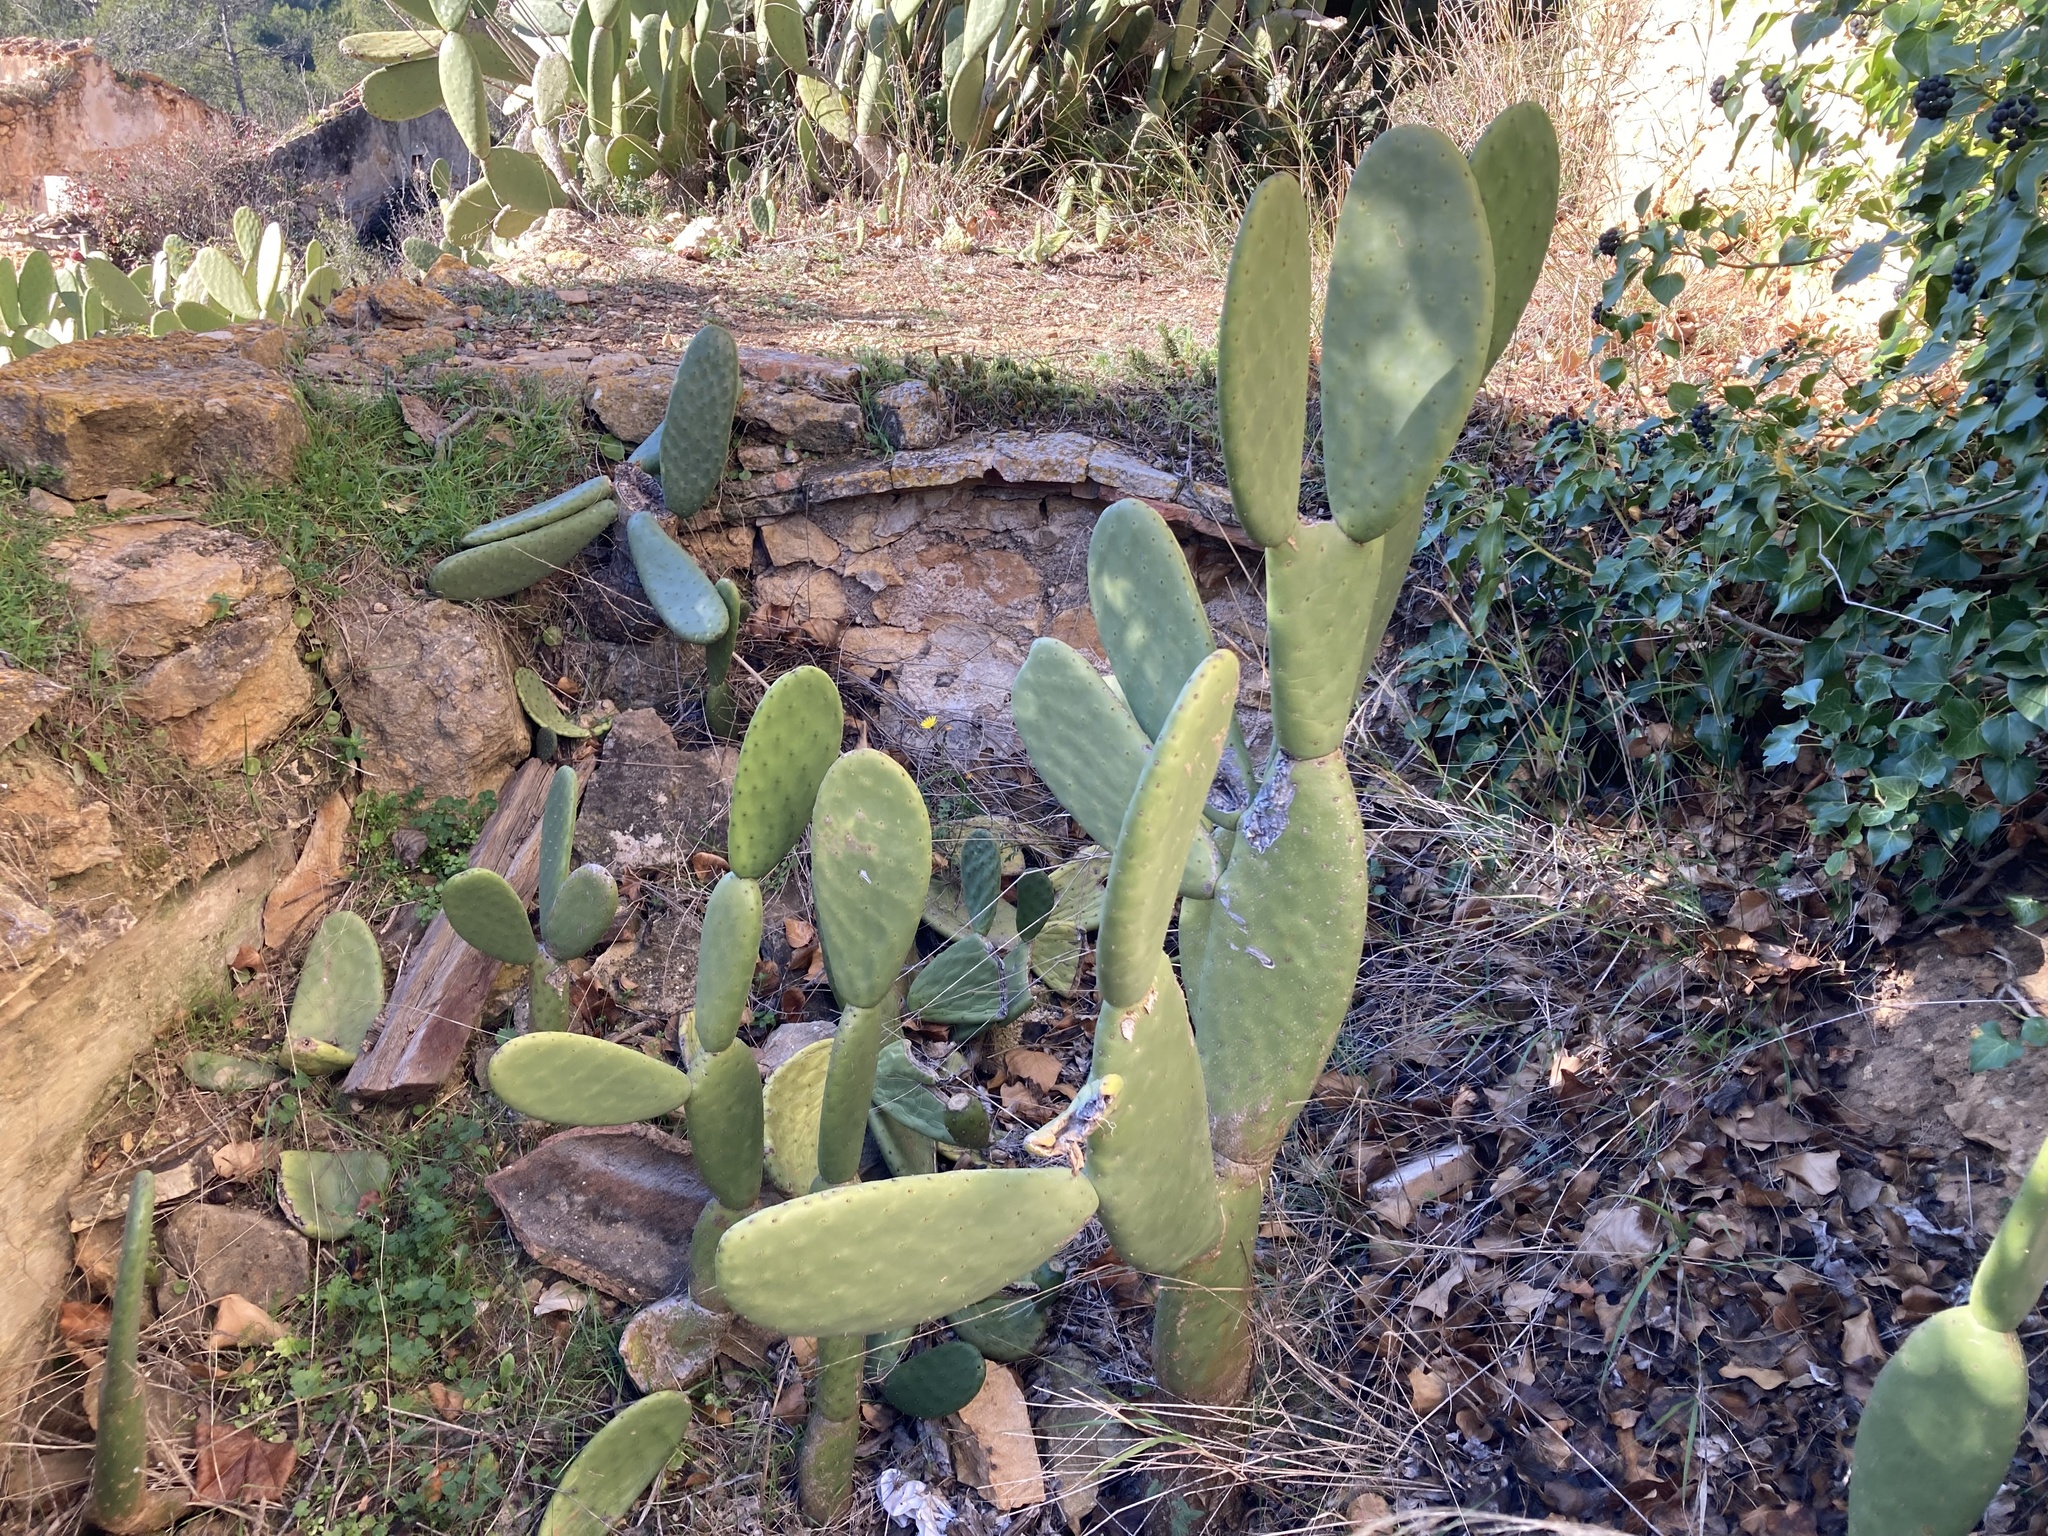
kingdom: Plantae
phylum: Tracheophyta
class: Magnoliopsida
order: Caryophyllales
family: Cactaceae
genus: Opuntia
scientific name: Opuntia ficus-indica
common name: Barbary fig
